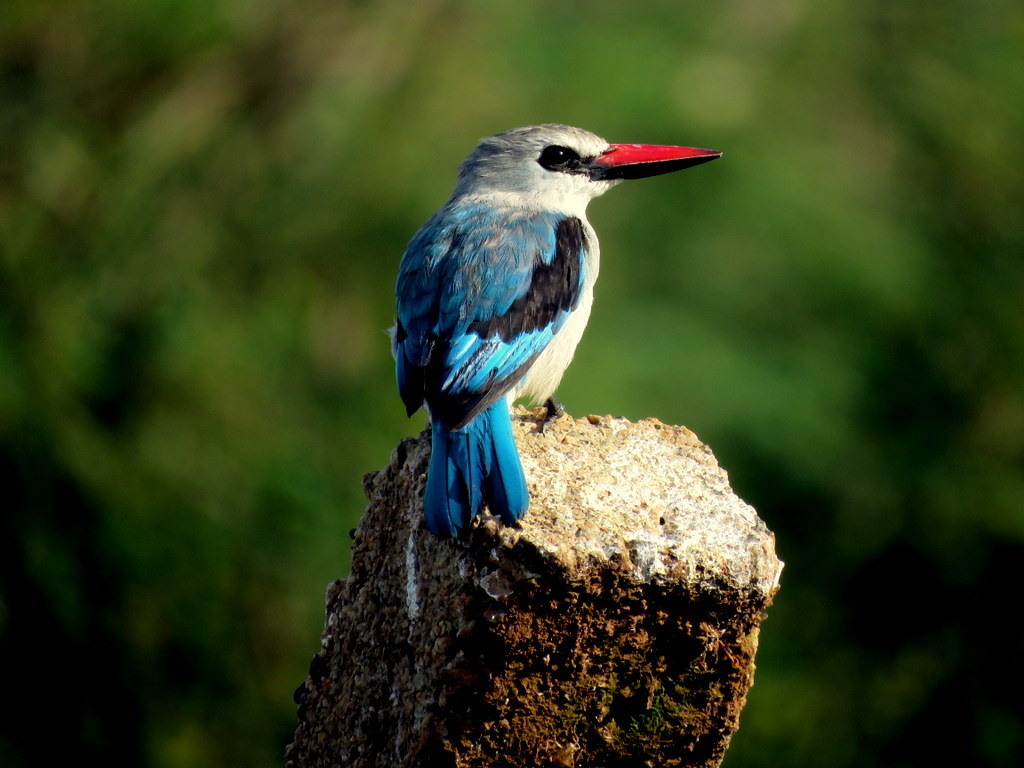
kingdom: Animalia
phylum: Chordata
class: Aves
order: Coraciiformes
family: Alcedinidae
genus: Halcyon
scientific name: Halcyon senegalensis
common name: Woodland kingfisher
